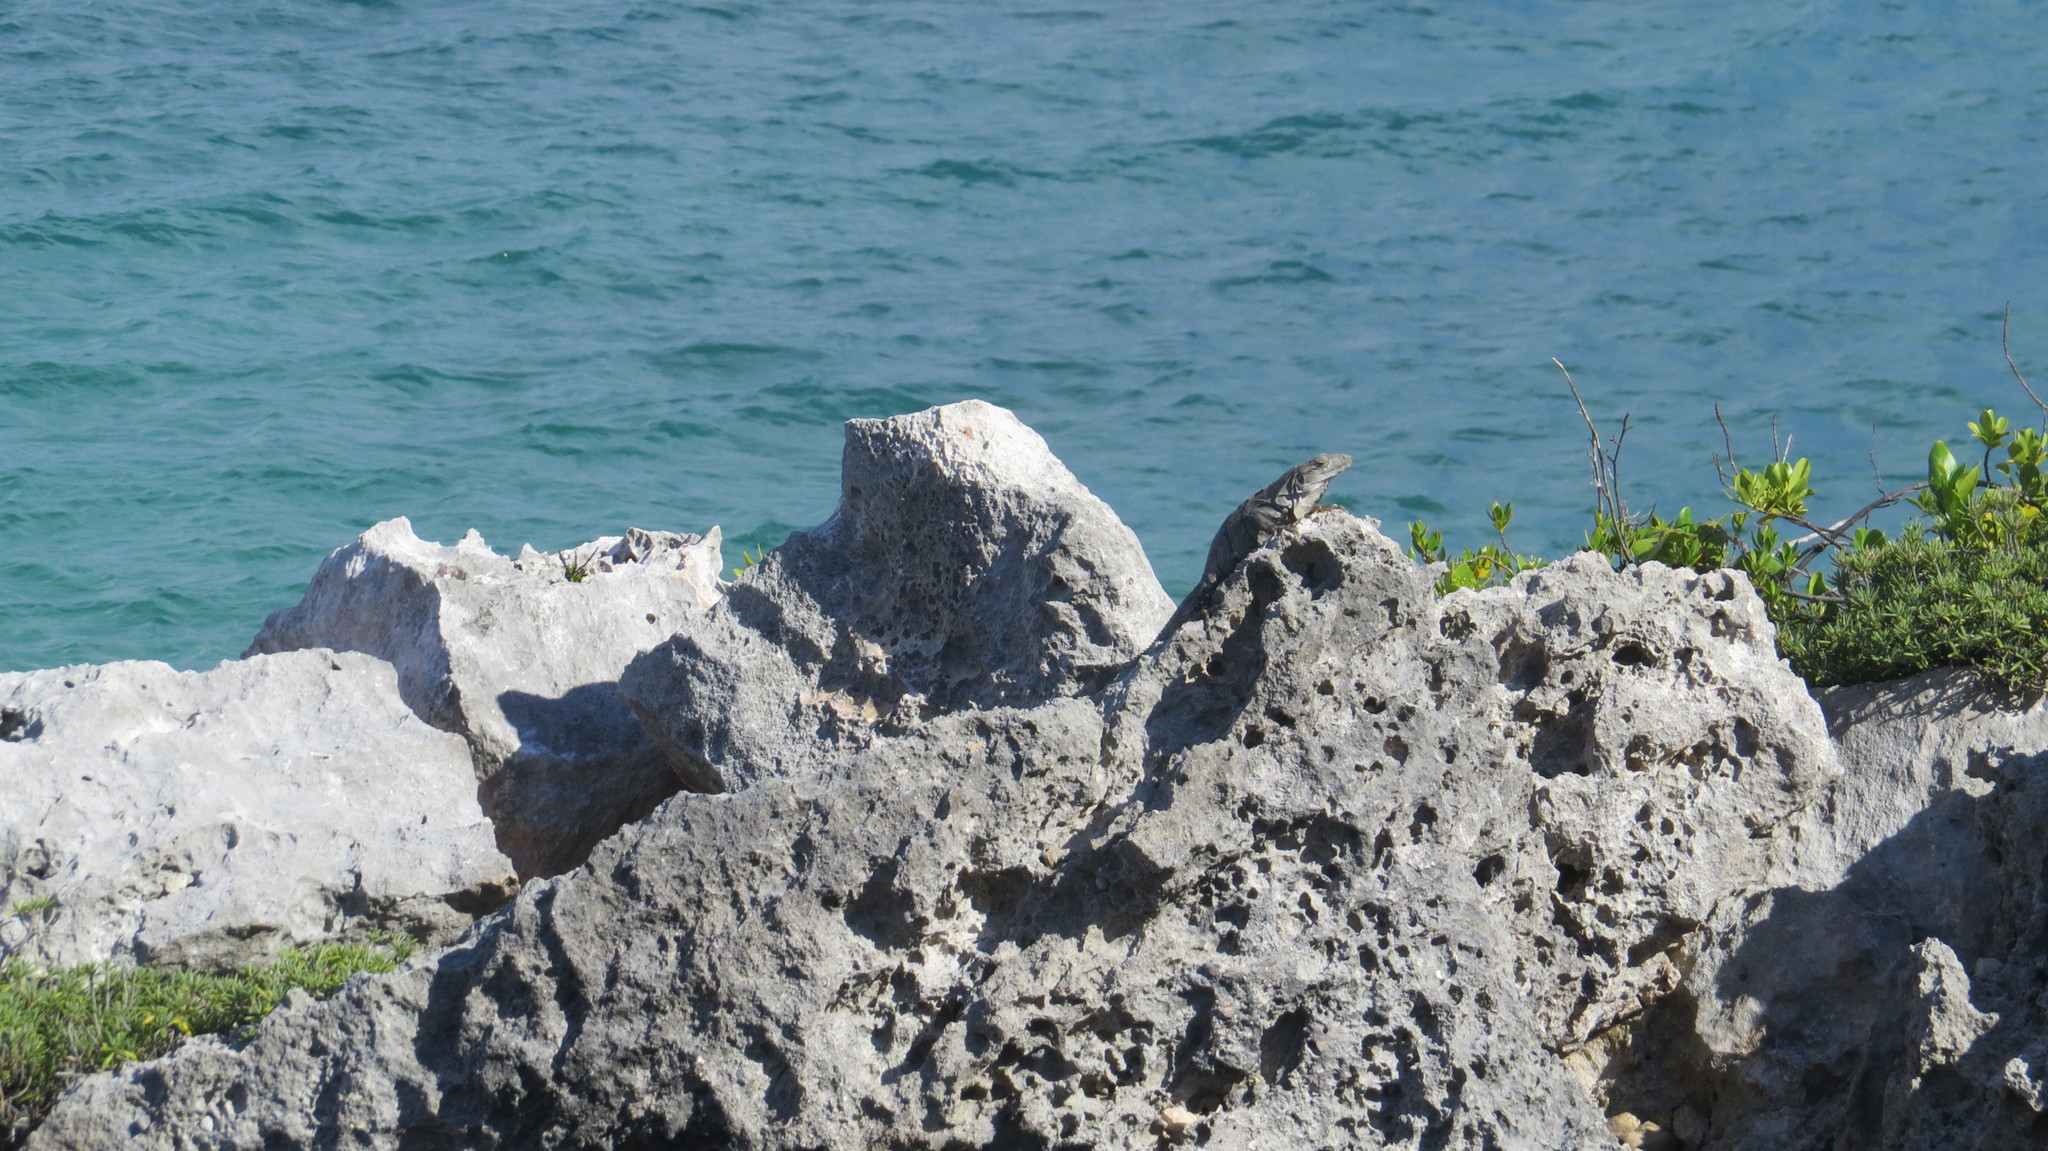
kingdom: Animalia
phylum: Chordata
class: Squamata
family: Iguanidae
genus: Ctenosaura
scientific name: Ctenosaura similis
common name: Black spiny-tailed iguana
